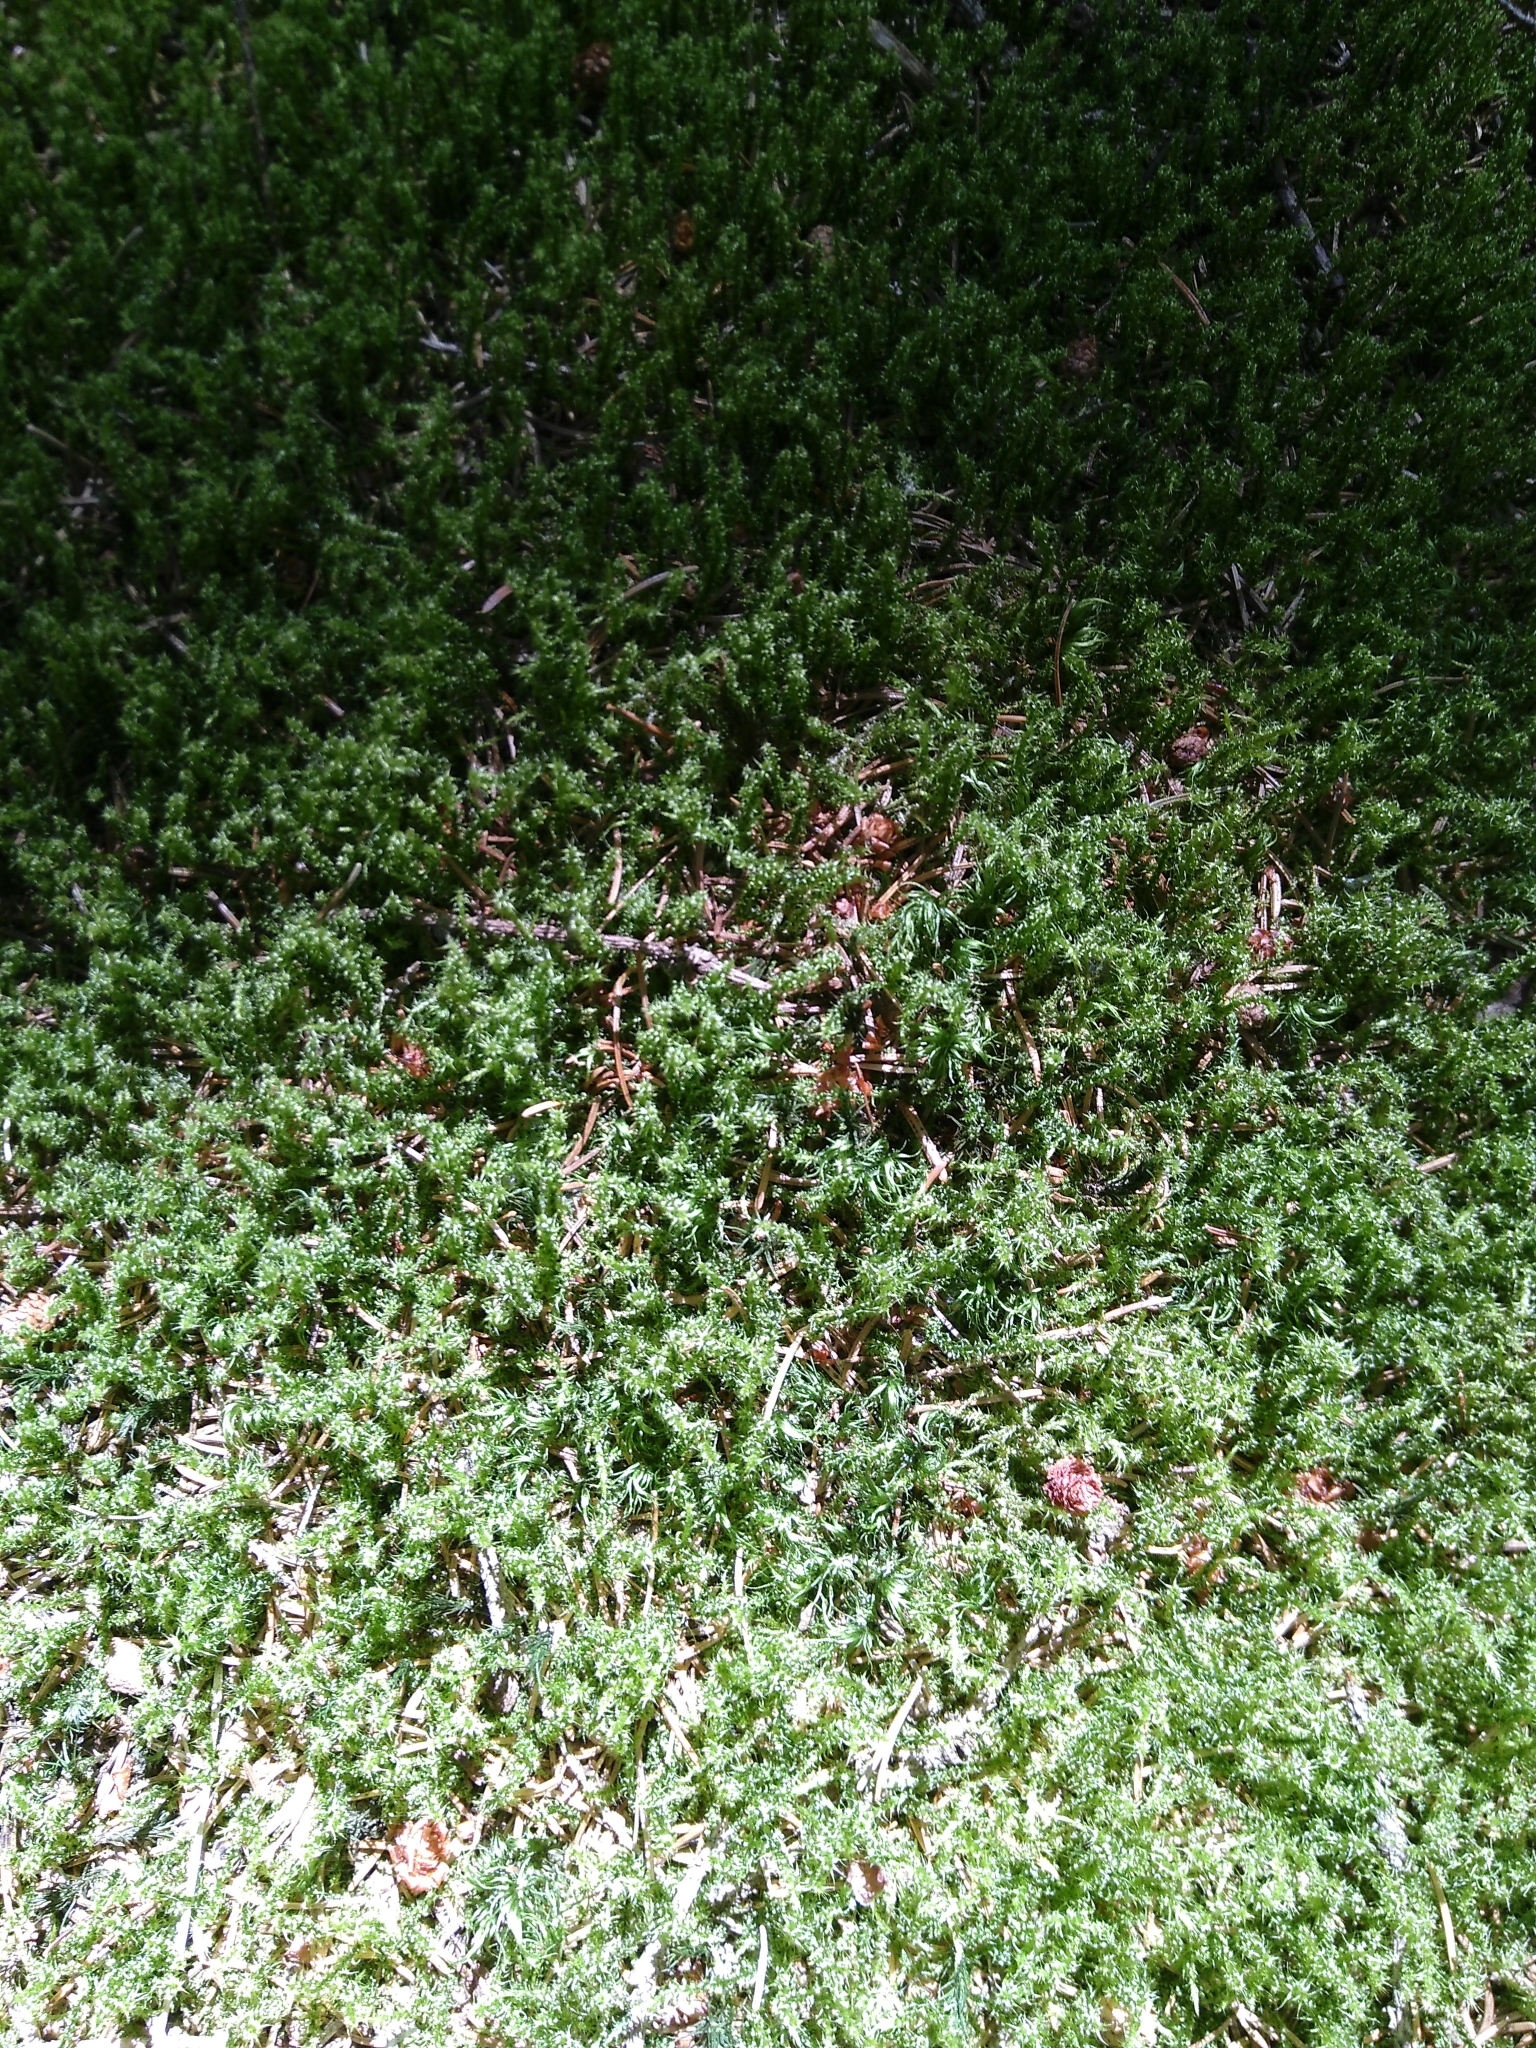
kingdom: Plantae
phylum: Bryophyta
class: Bryopsida
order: Hypnales
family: Hylocomiaceae
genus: Rhytidiadelphus
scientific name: Rhytidiadelphus squarrosus
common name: Springy turf-moss
